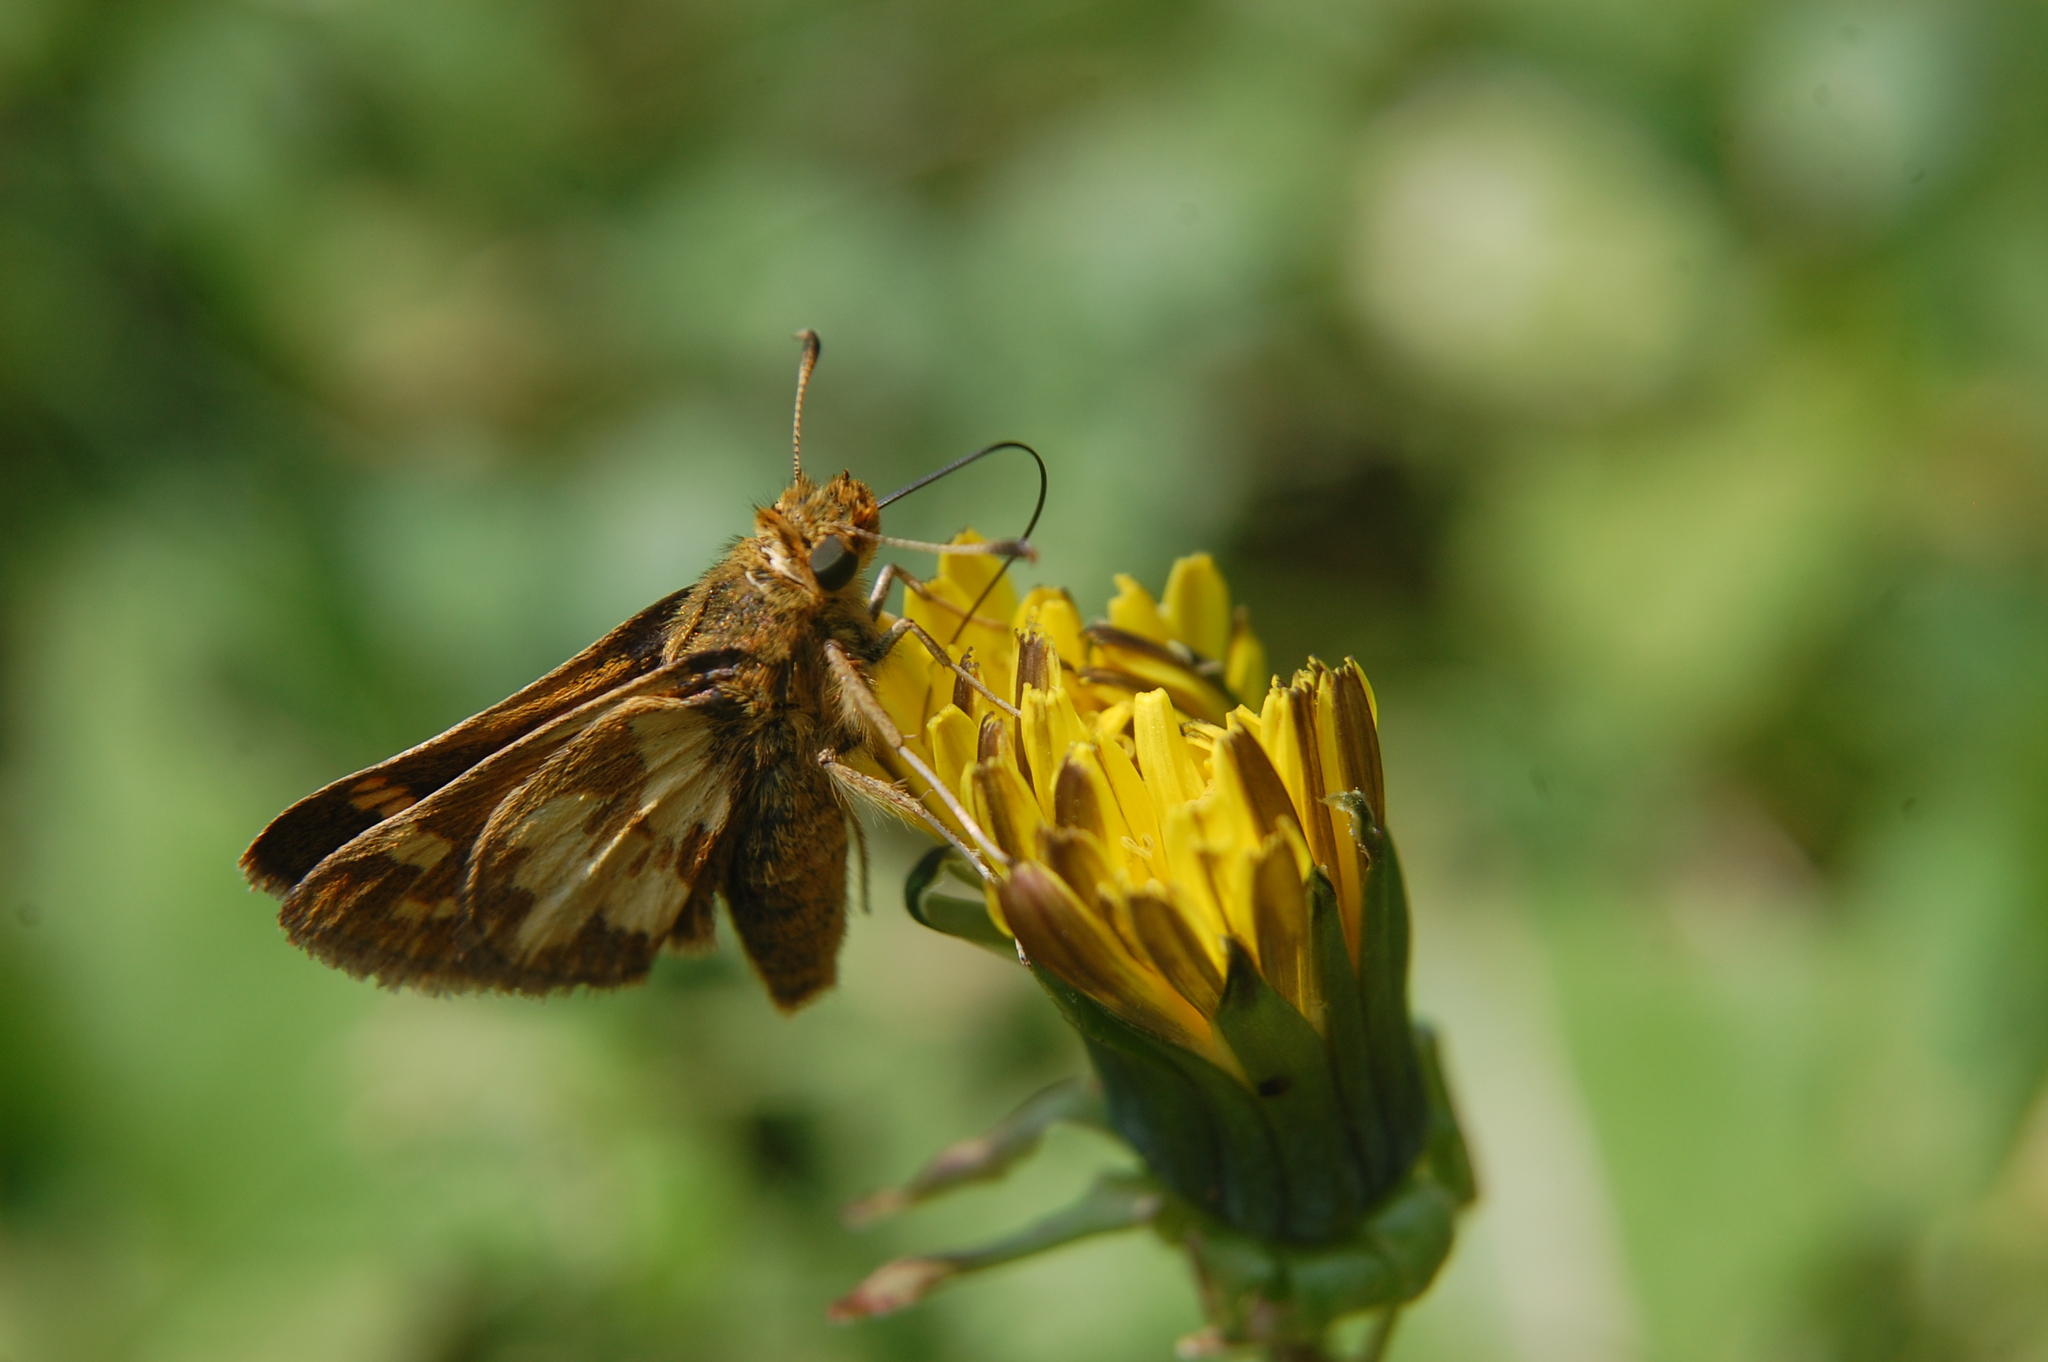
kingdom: Animalia
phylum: Arthropoda
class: Insecta
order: Lepidoptera
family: Hesperiidae
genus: Polites
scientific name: Polites coras
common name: Peck's skipper
